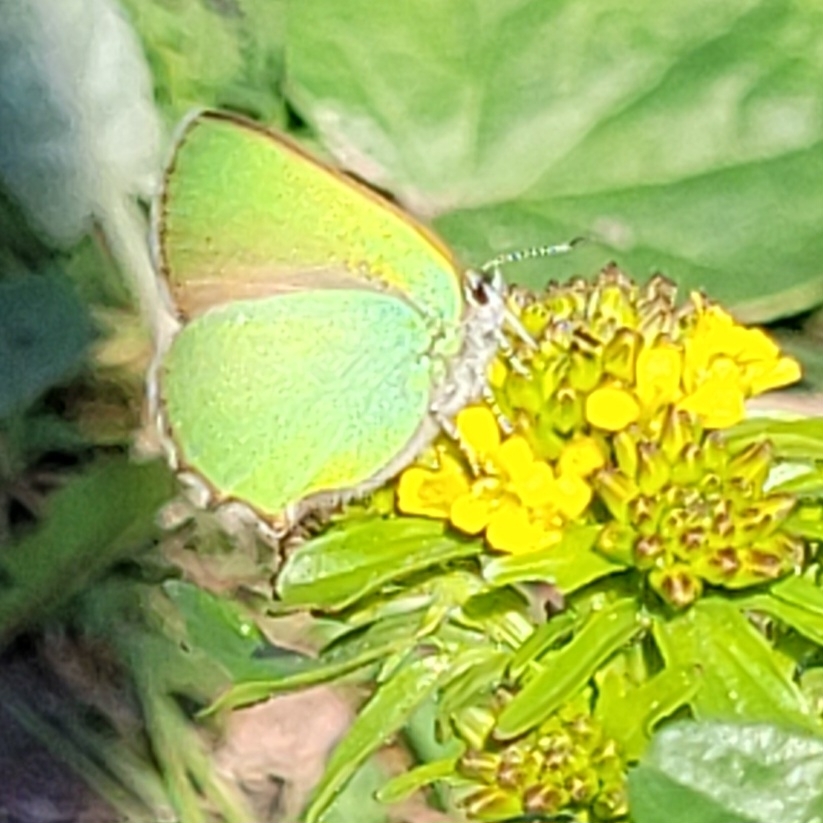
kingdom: Animalia
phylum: Arthropoda
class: Insecta
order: Lepidoptera
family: Lycaenidae
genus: Callophrys
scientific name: Callophrys rubi
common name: Green hairstreak
